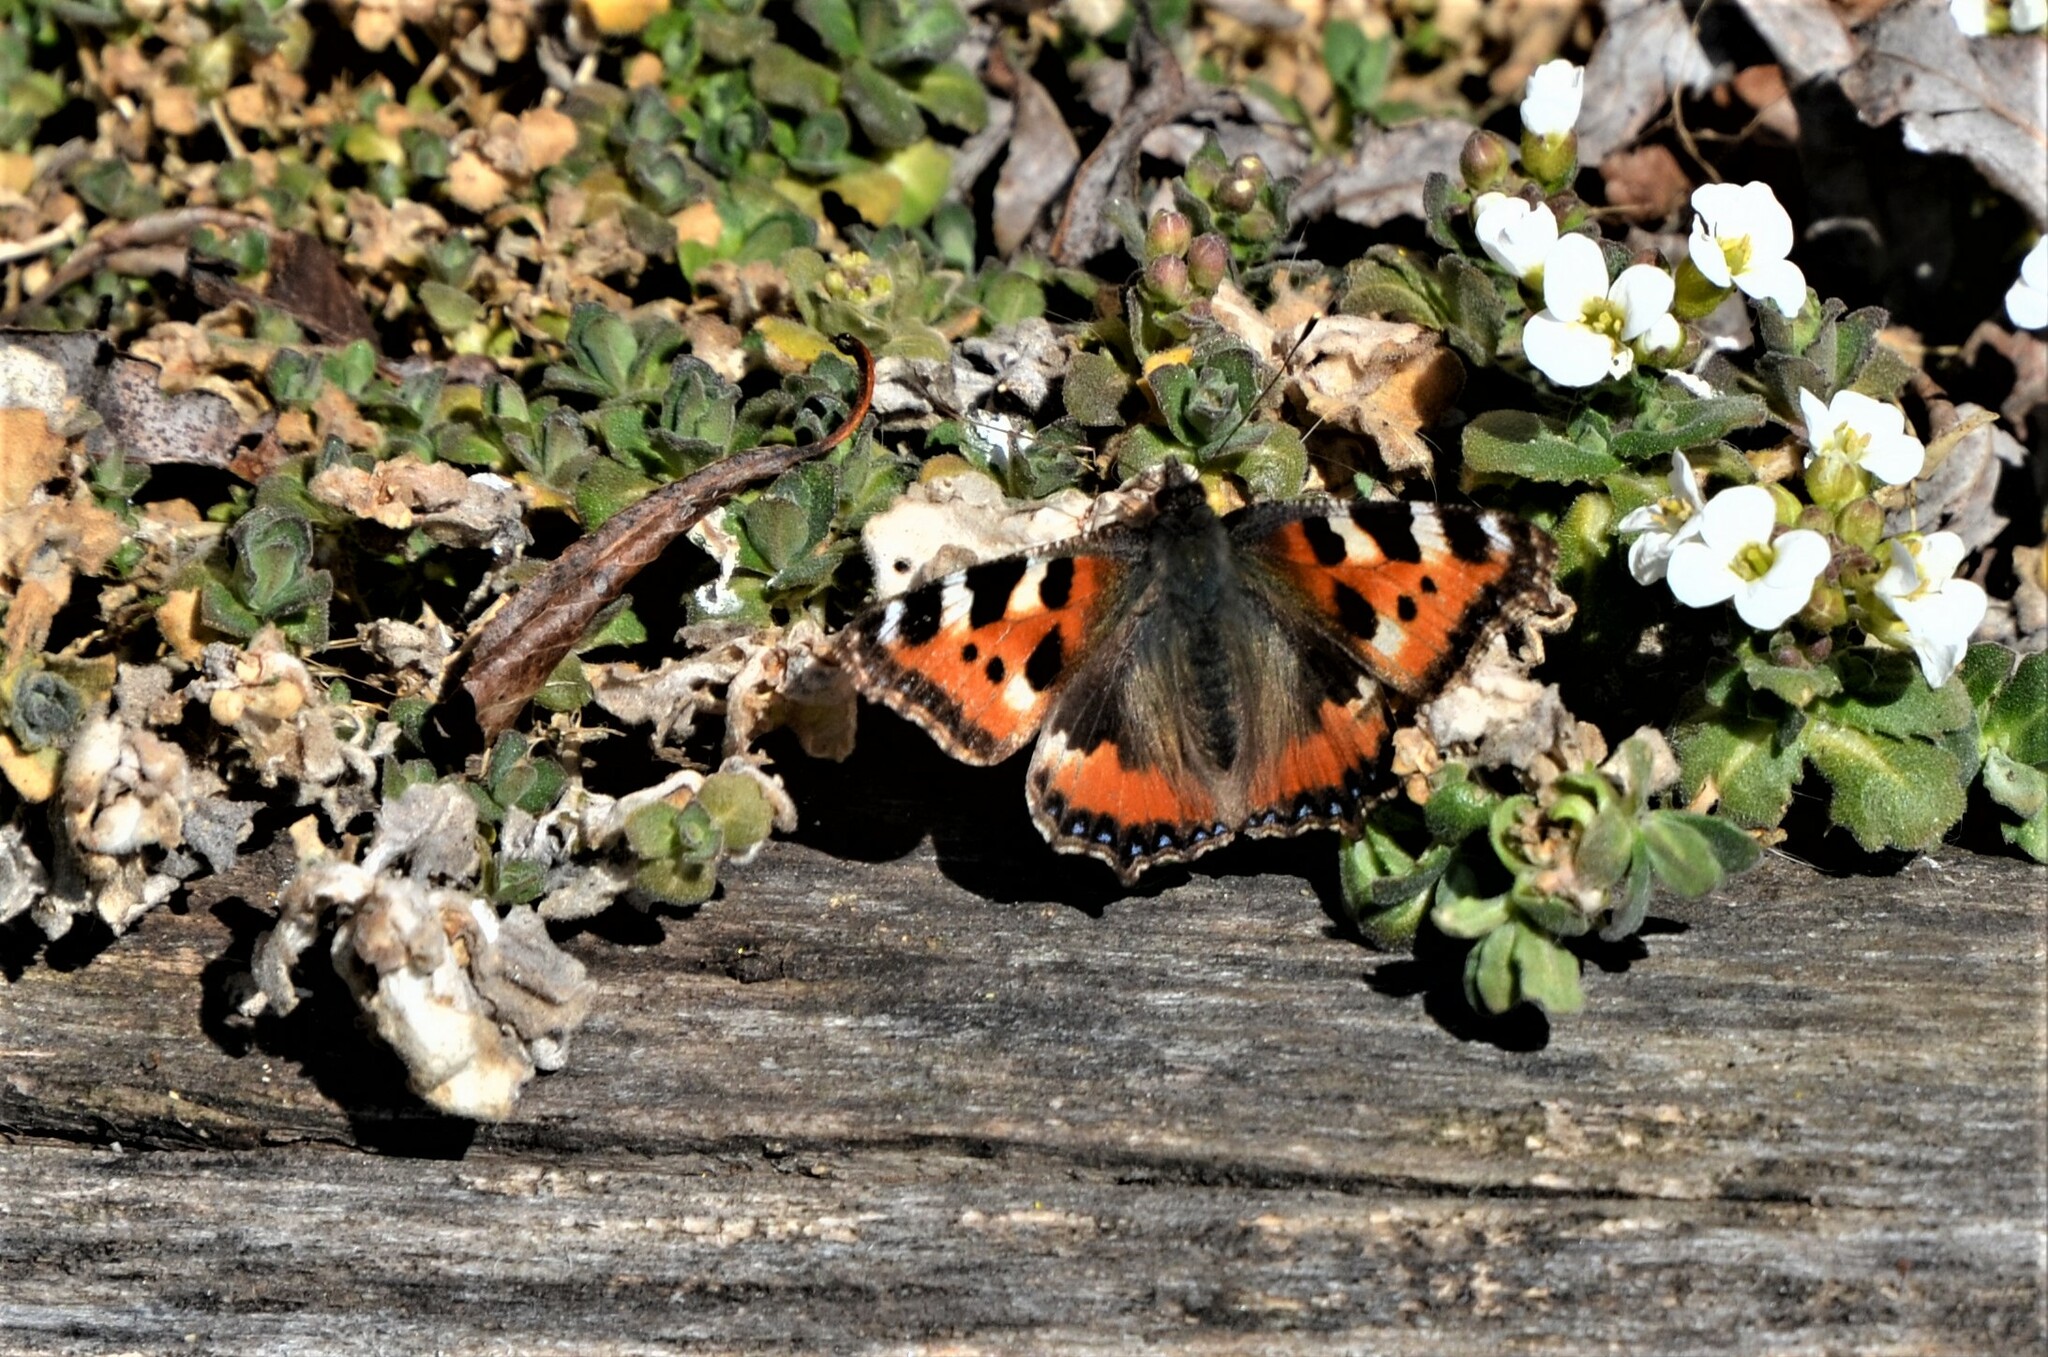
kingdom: Animalia
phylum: Arthropoda
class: Insecta
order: Lepidoptera
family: Nymphalidae
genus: Aglais
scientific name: Aglais urticae
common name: Small tortoiseshell
